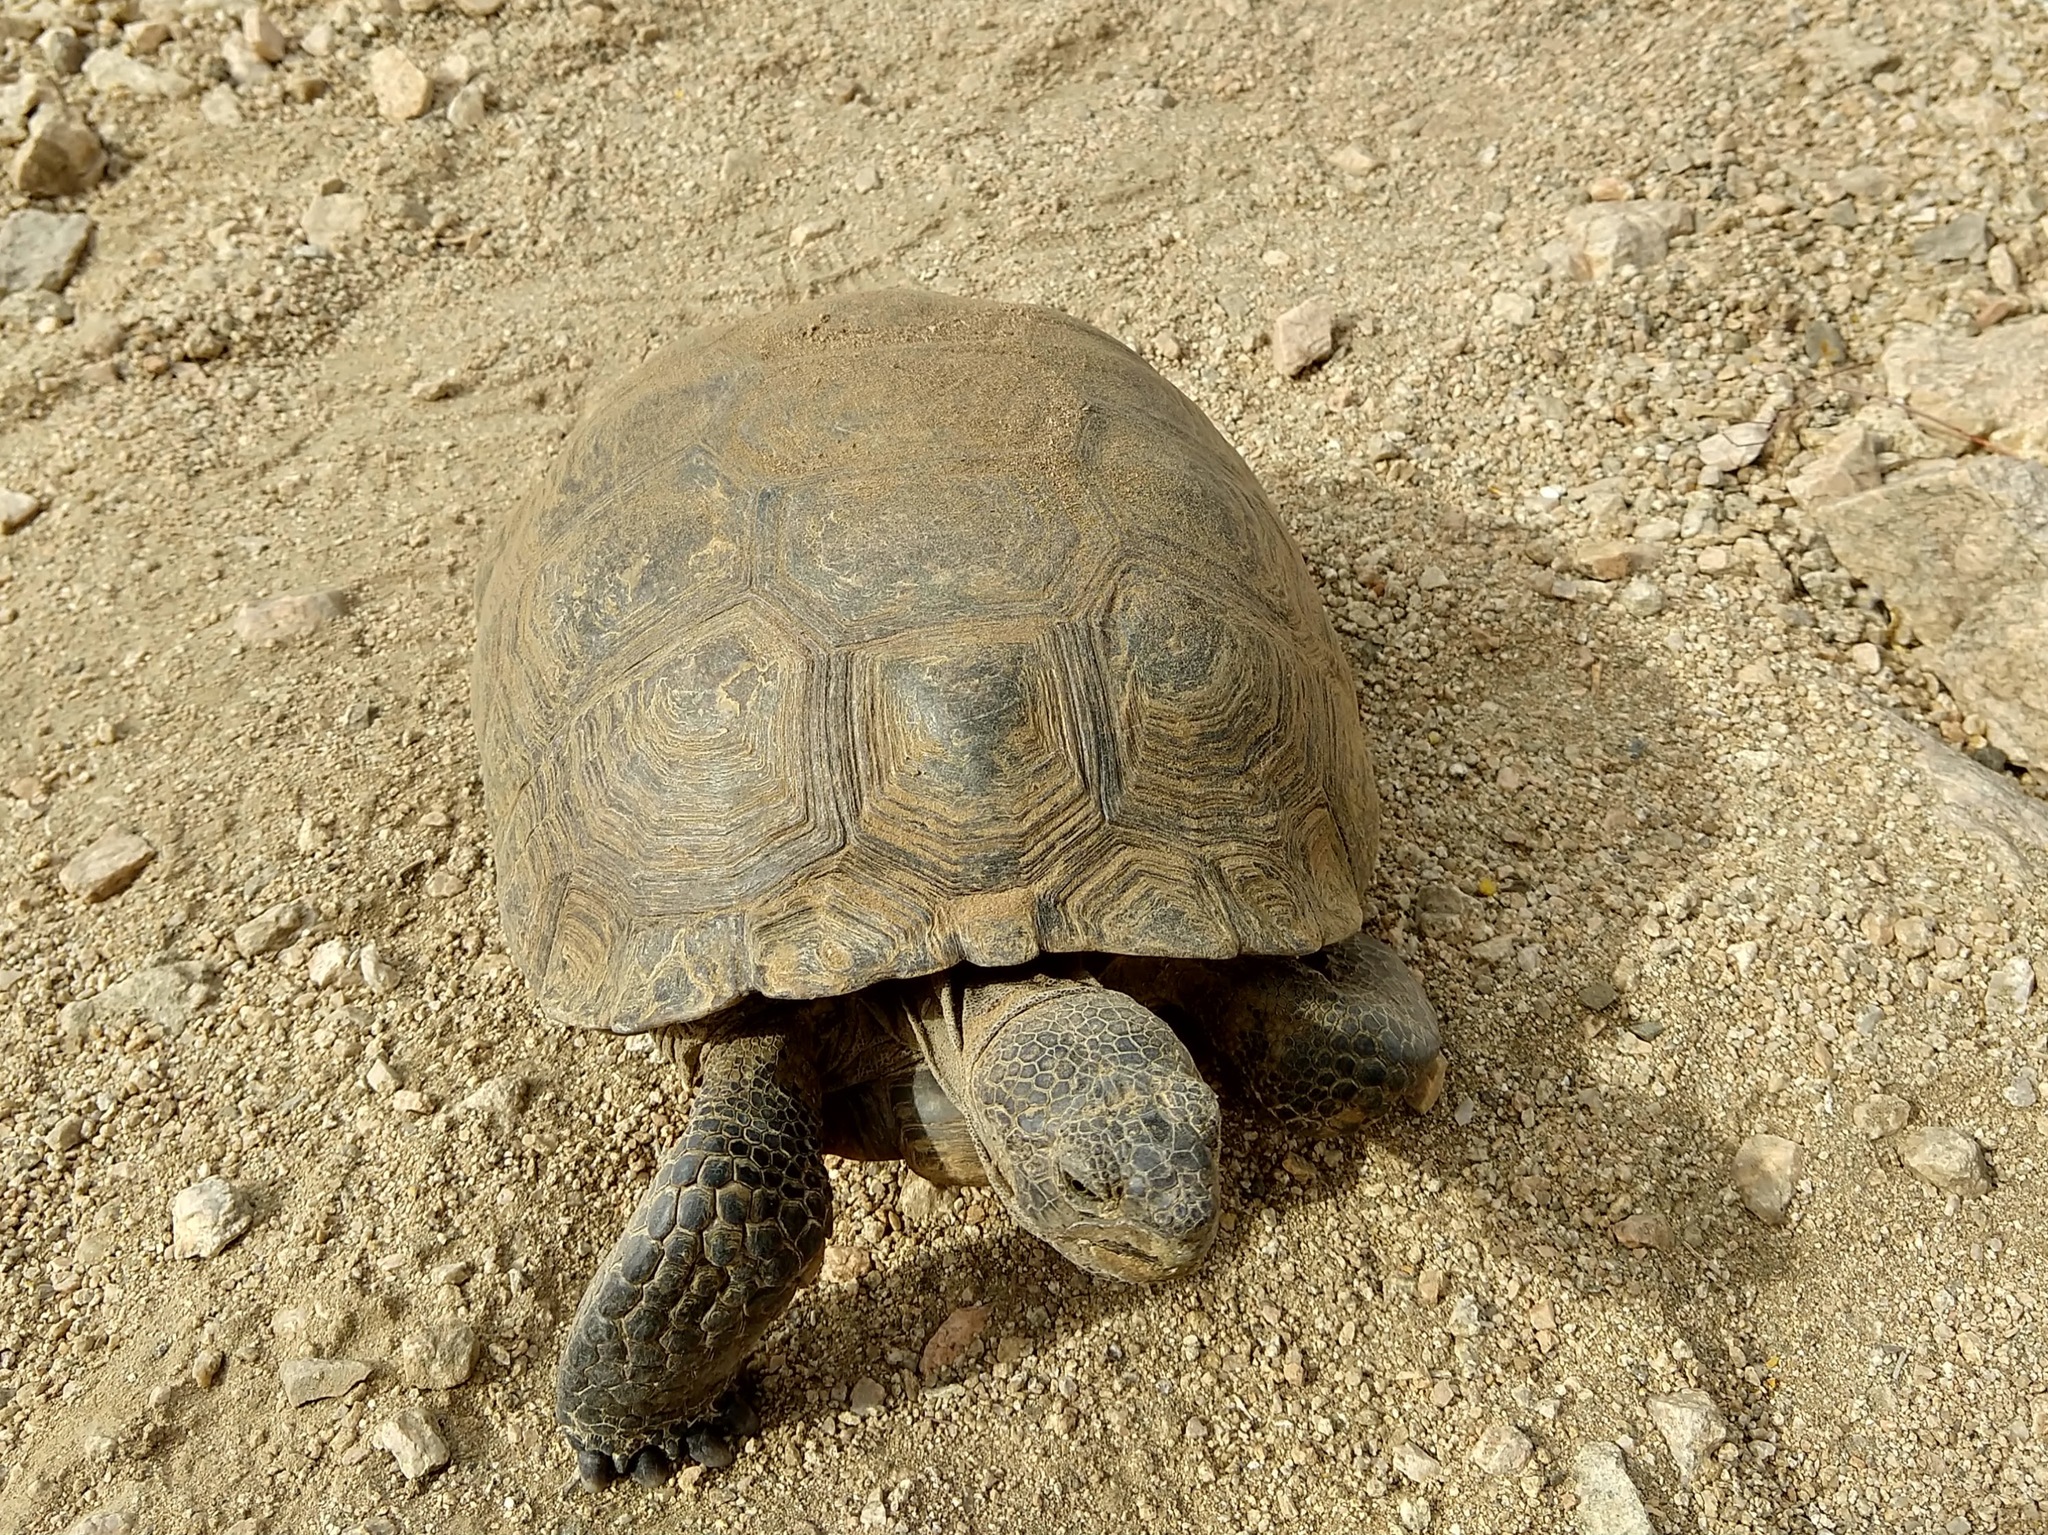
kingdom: Animalia
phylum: Chordata
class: Testudines
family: Testudinidae
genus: Gopherus
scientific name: Gopherus agassizii
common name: Mojave desert tortoise
